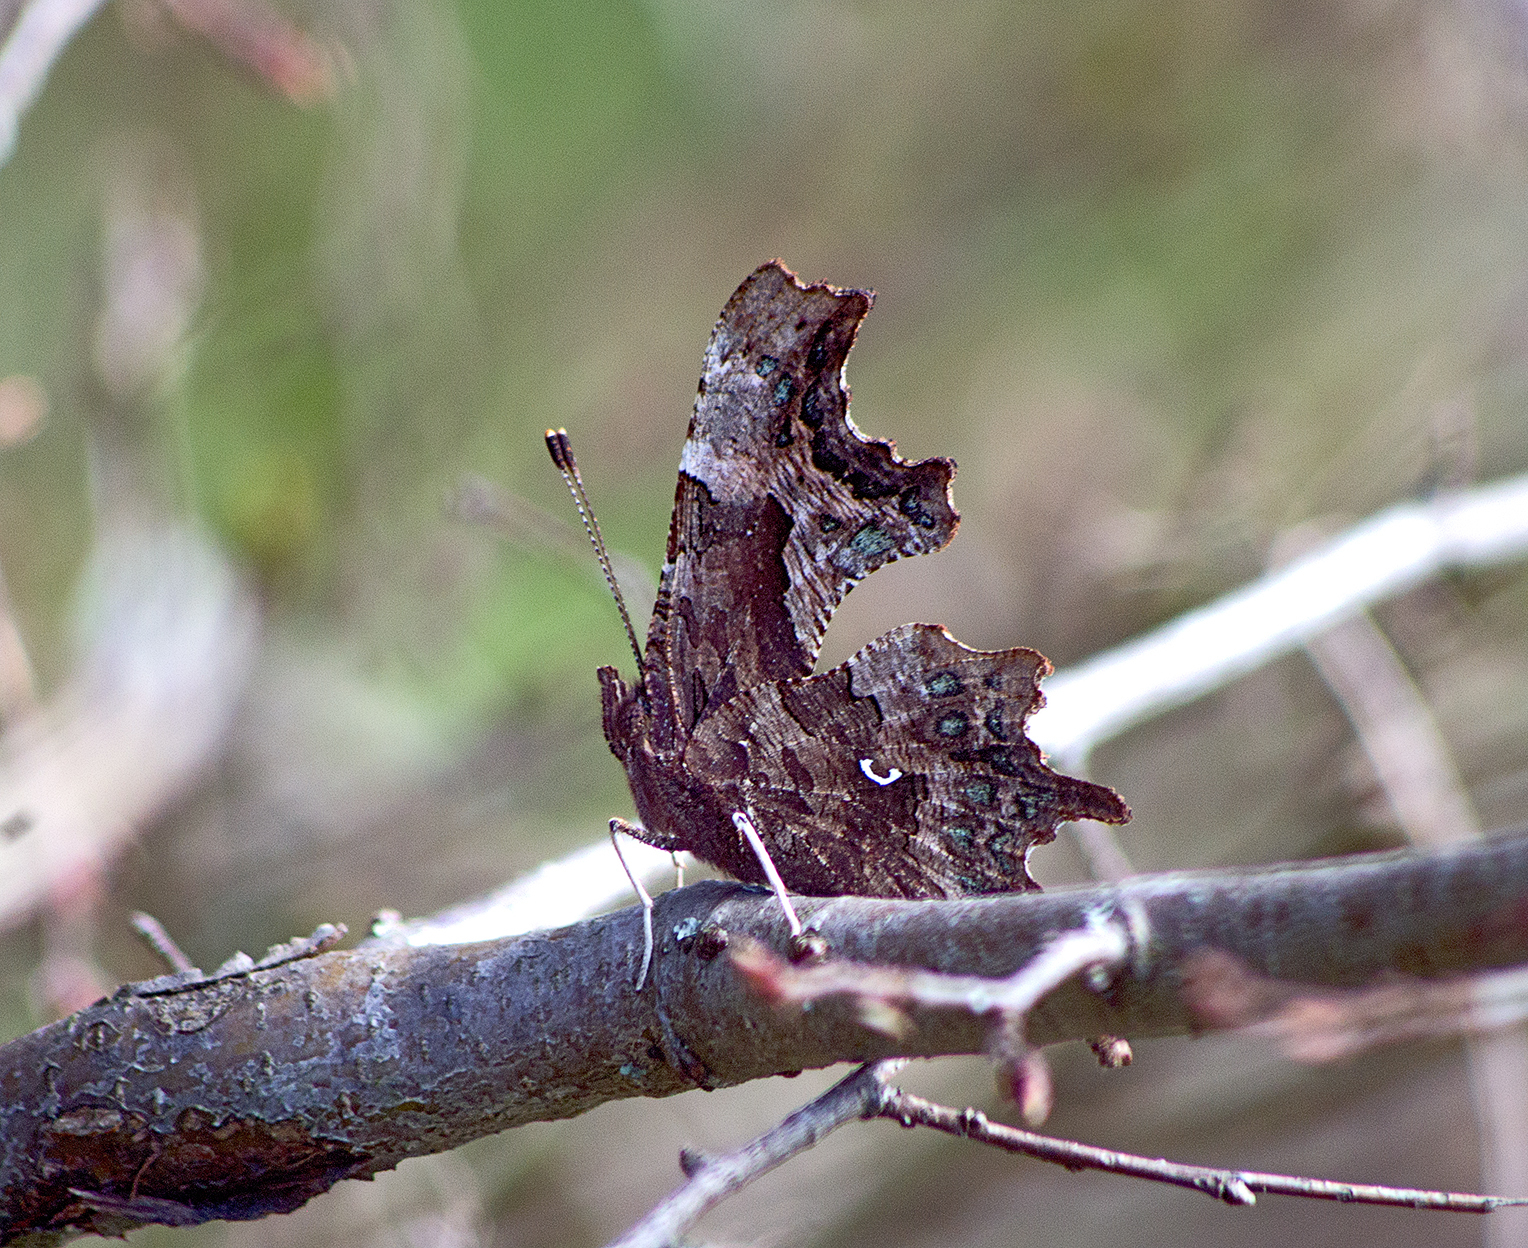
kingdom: Animalia
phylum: Arthropoda
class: Insecta
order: Lepidoptera
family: Nymphalidae
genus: Polygonia
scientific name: Polygonia c-album
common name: Comma
